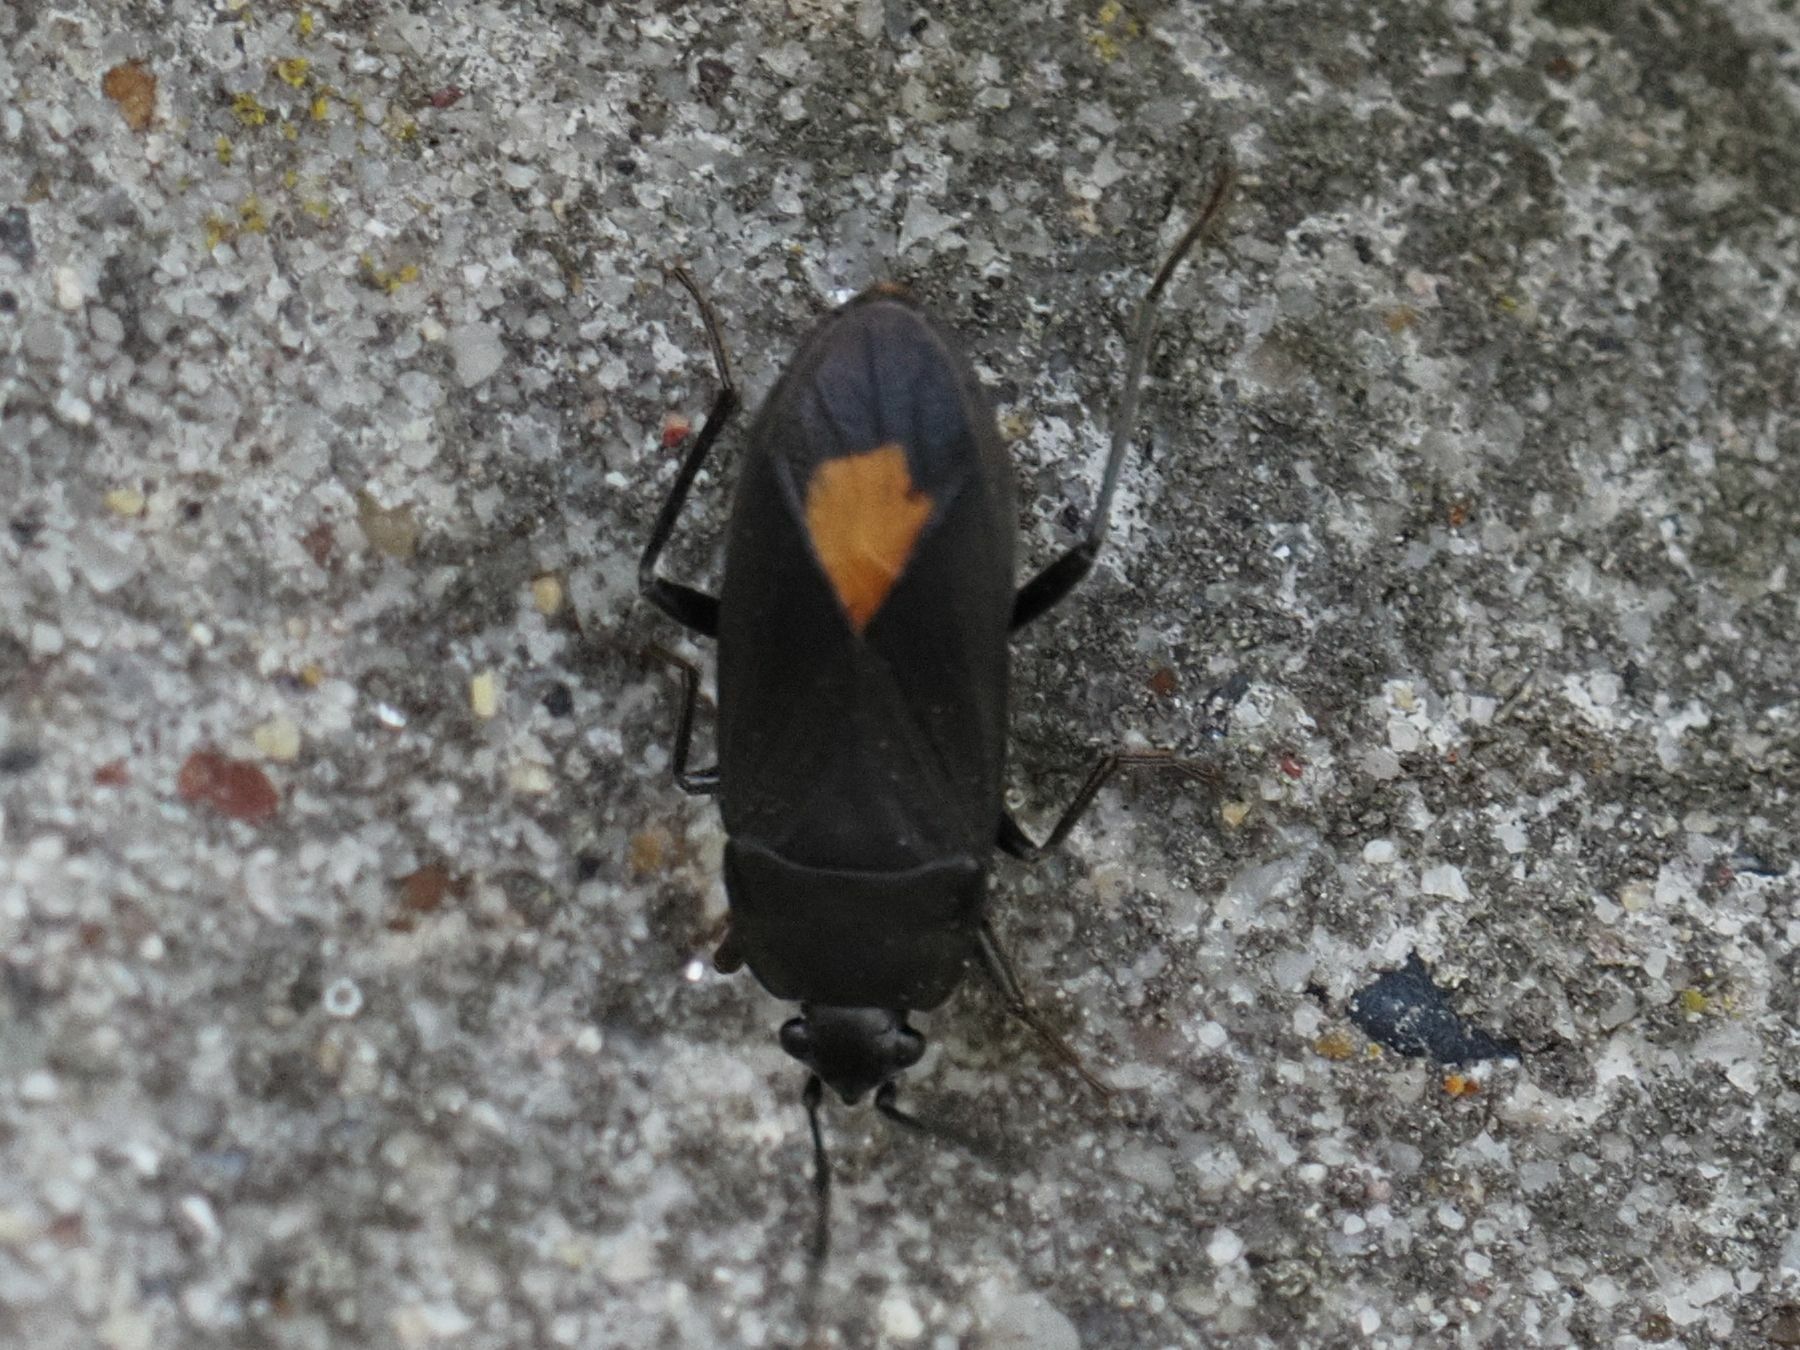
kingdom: Animalia
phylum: Arthropoda
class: Insecta
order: Hemiptera
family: Rhyparochromidae
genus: Aphanus
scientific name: Aphanus rolandri
